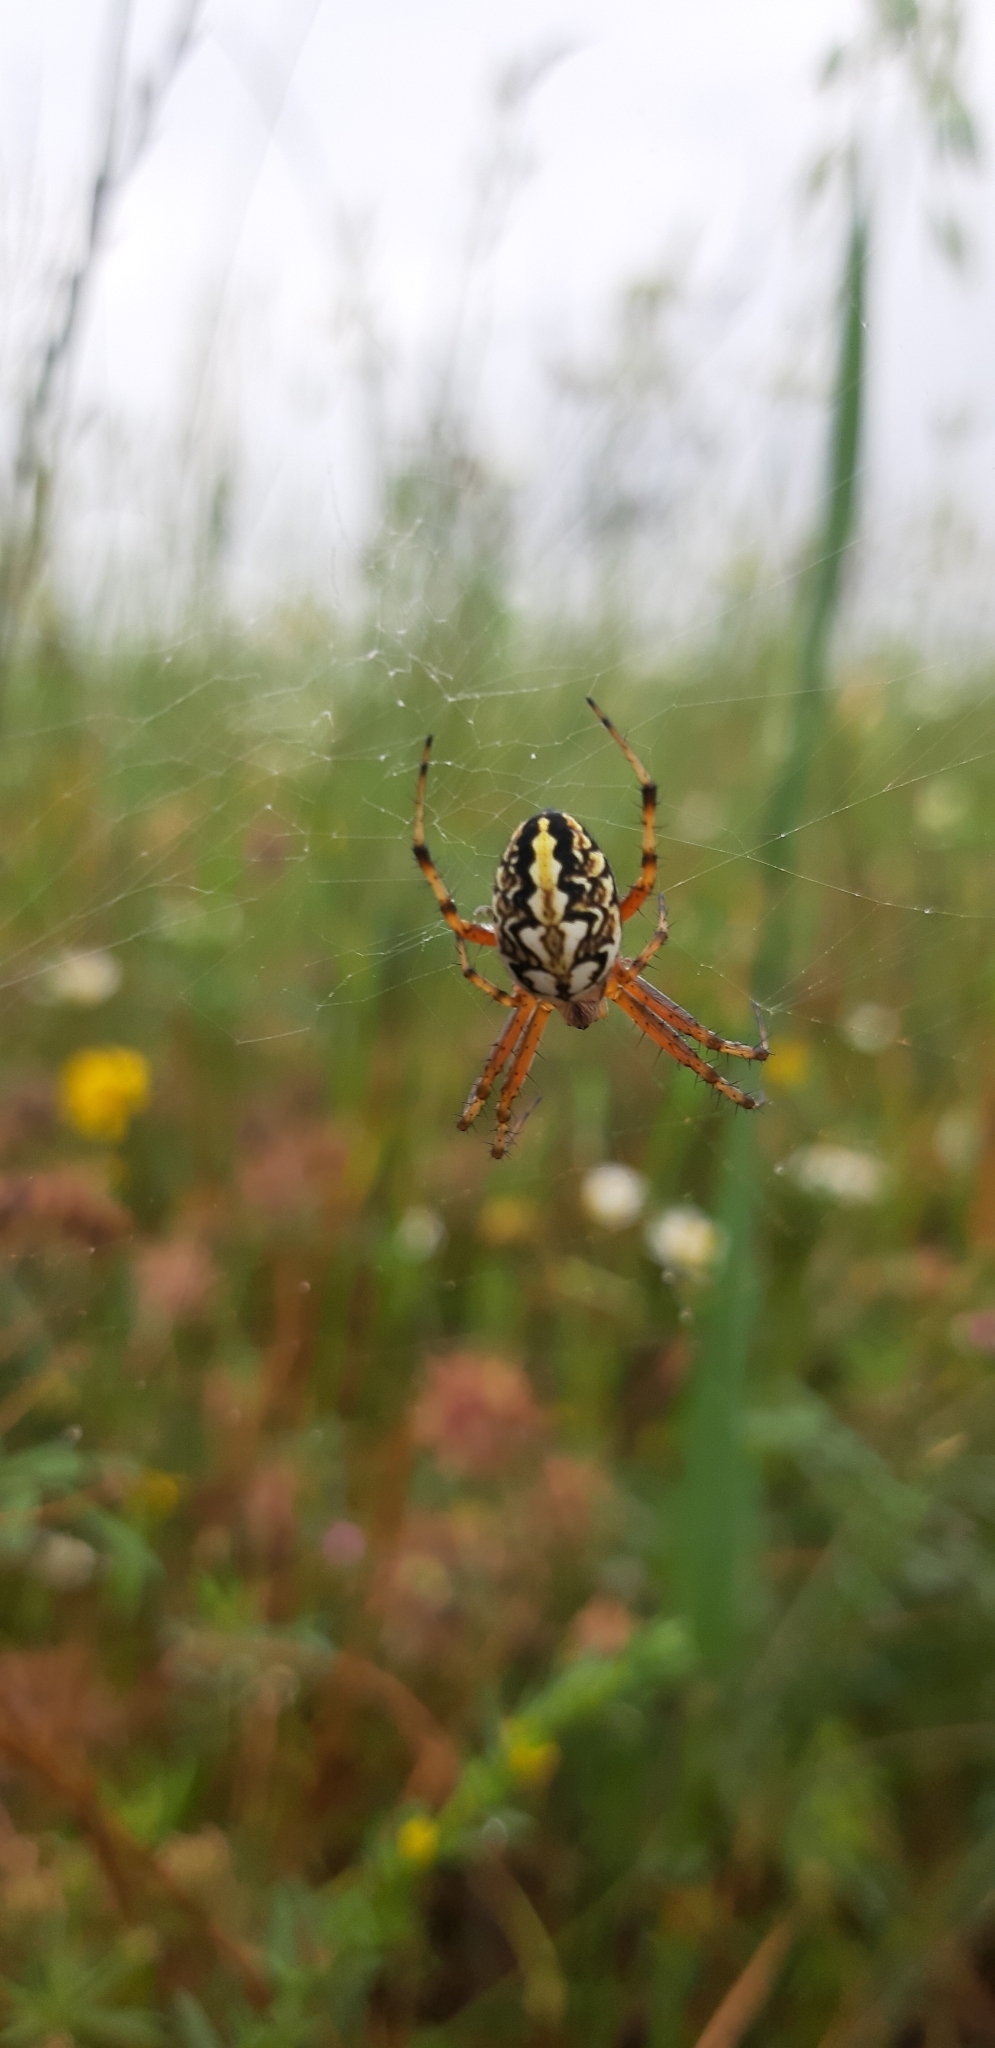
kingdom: Animalia
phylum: Arthropoda
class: Arachnida
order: Araneae
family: Araneidae
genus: Neoscona
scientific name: Neoscona adianta
